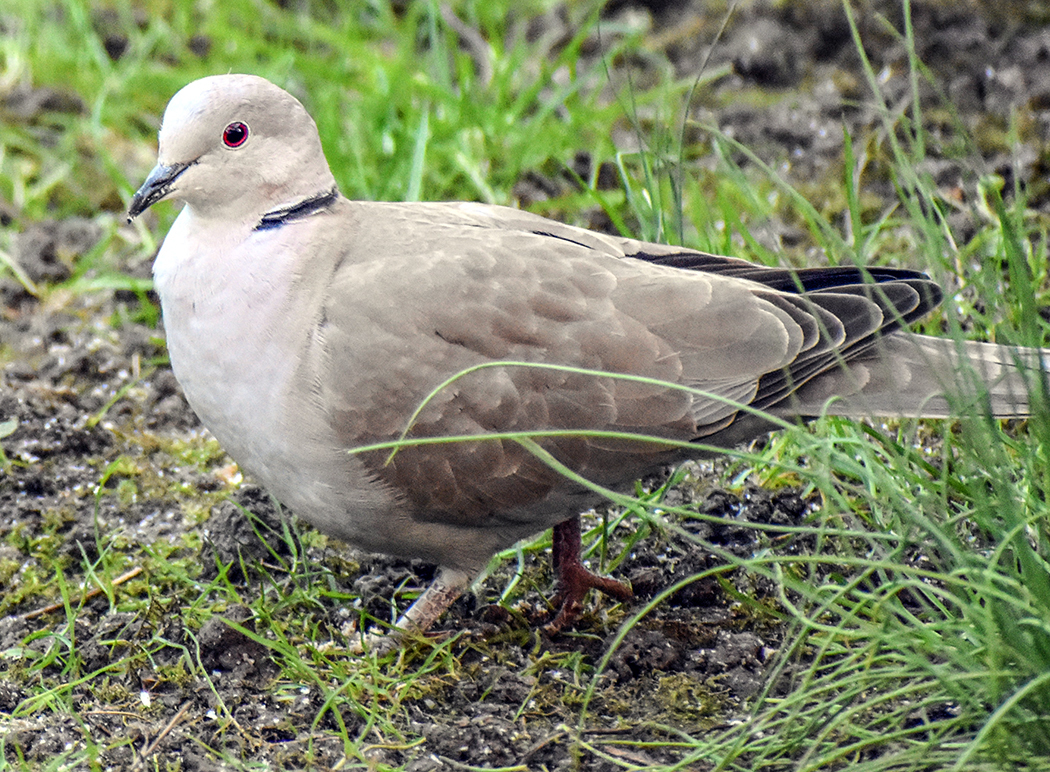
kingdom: Animalia
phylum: Chordata
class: Aves
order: Columbiformes
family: Columbidae
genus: Streptopelia
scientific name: Streptopelia decaocto
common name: Eurasian collared dove
